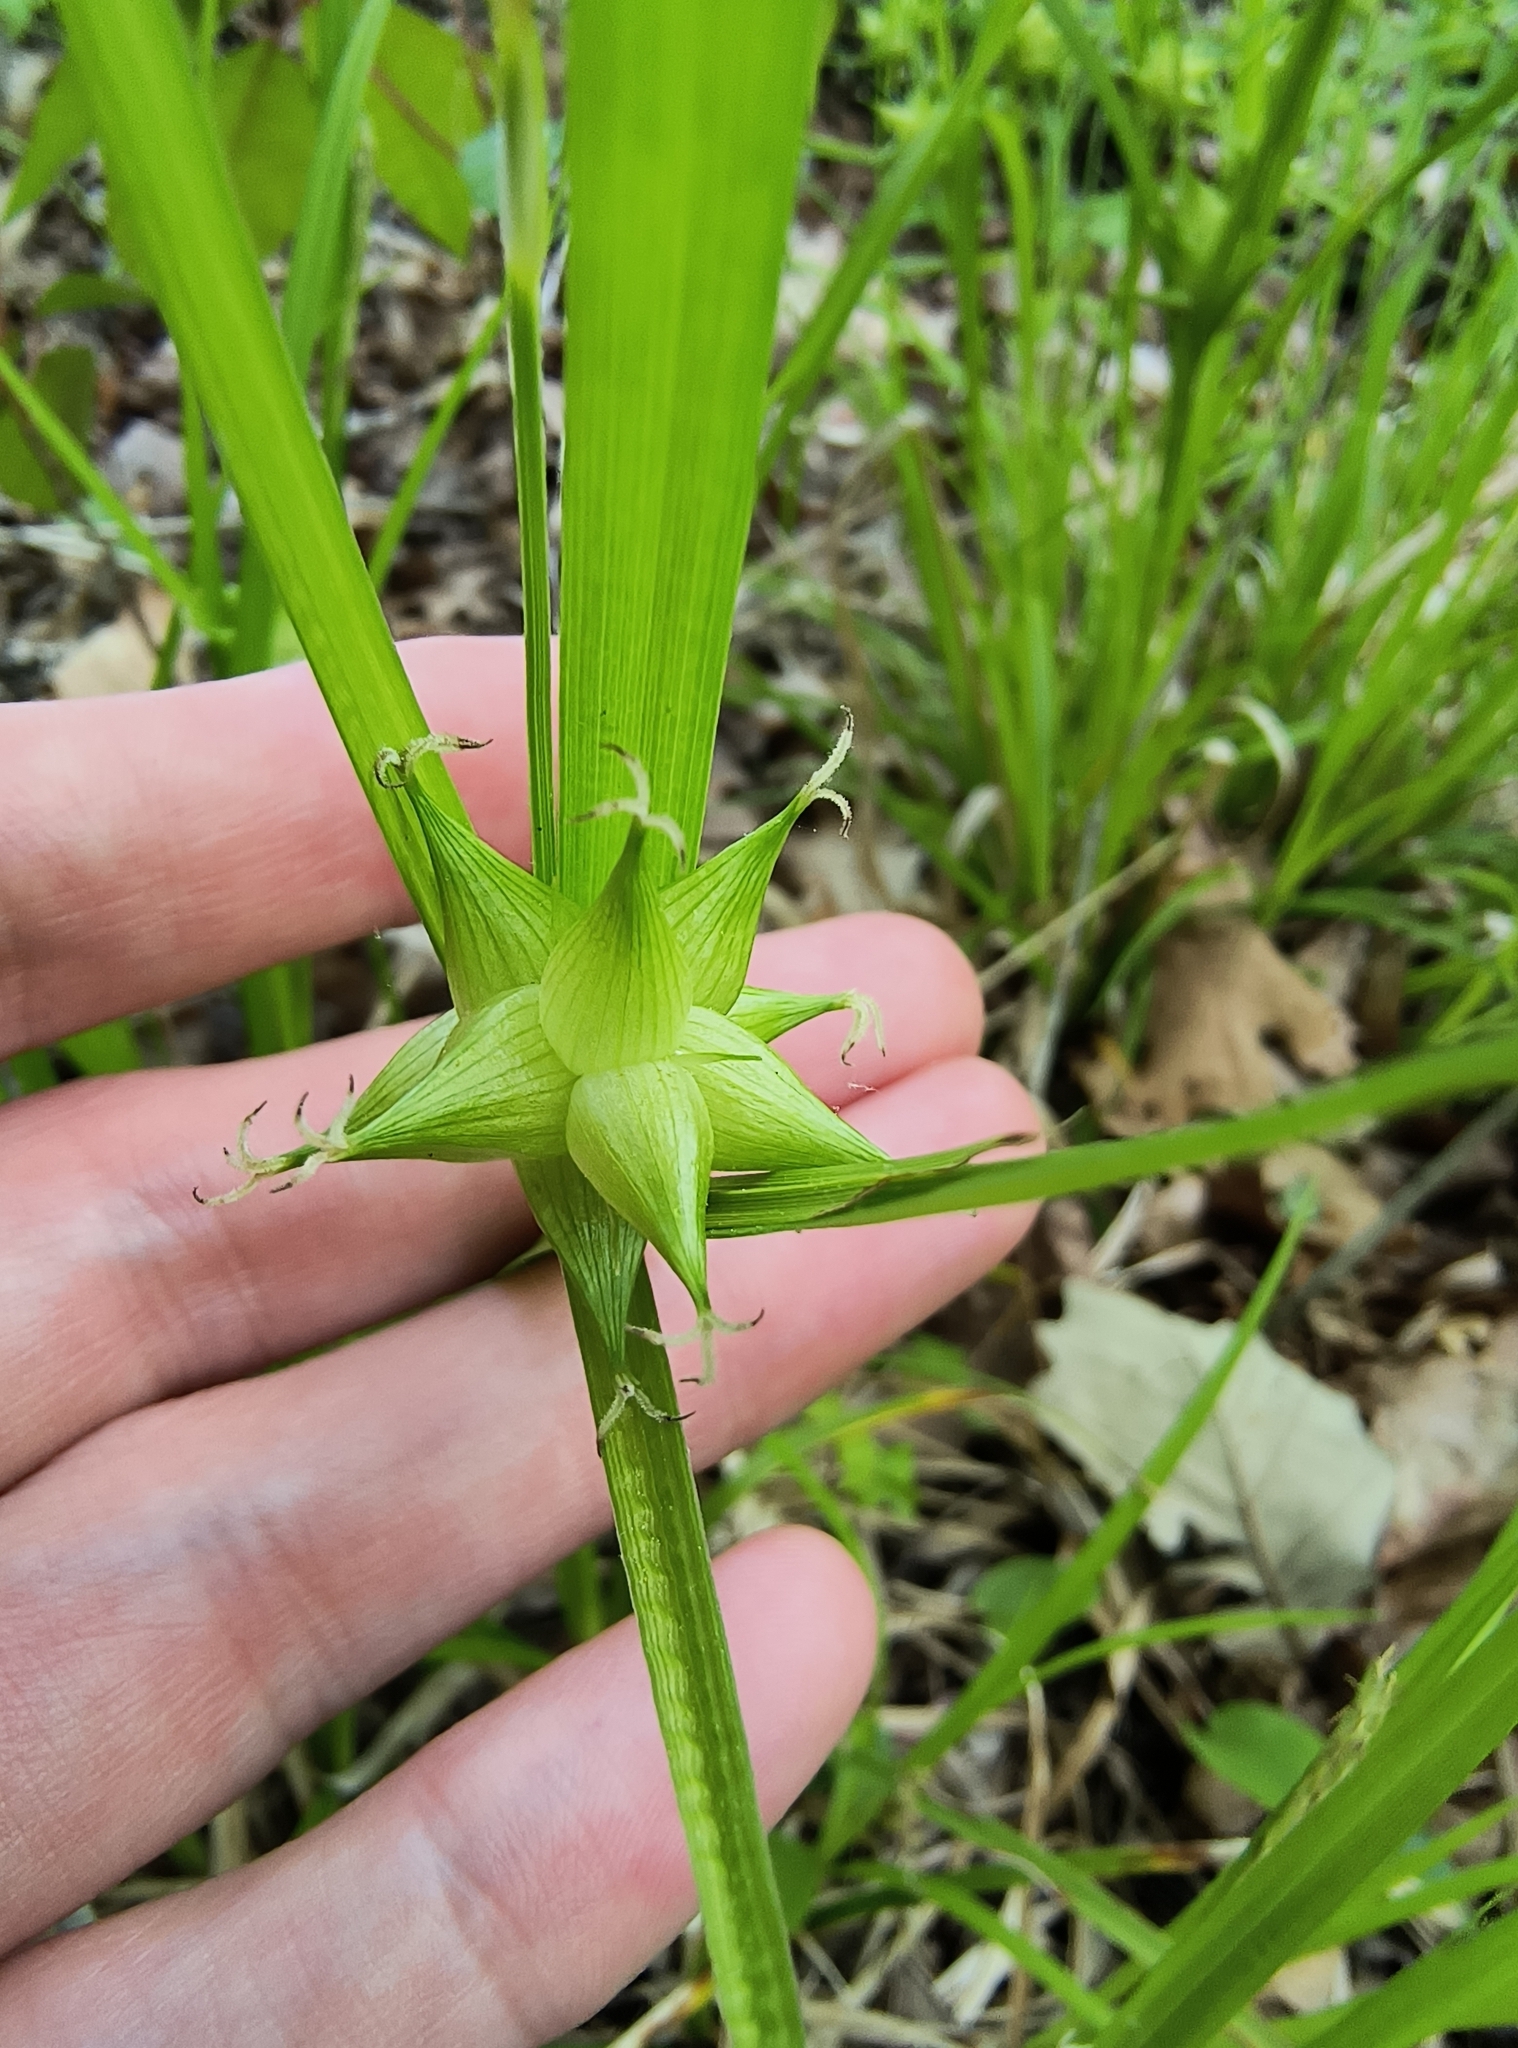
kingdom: Plantae
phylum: Tracheophyta
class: Liliopsida
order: Poales
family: Cyperaceae
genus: Carex
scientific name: Carex intumescens
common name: Greater bladder sedge
